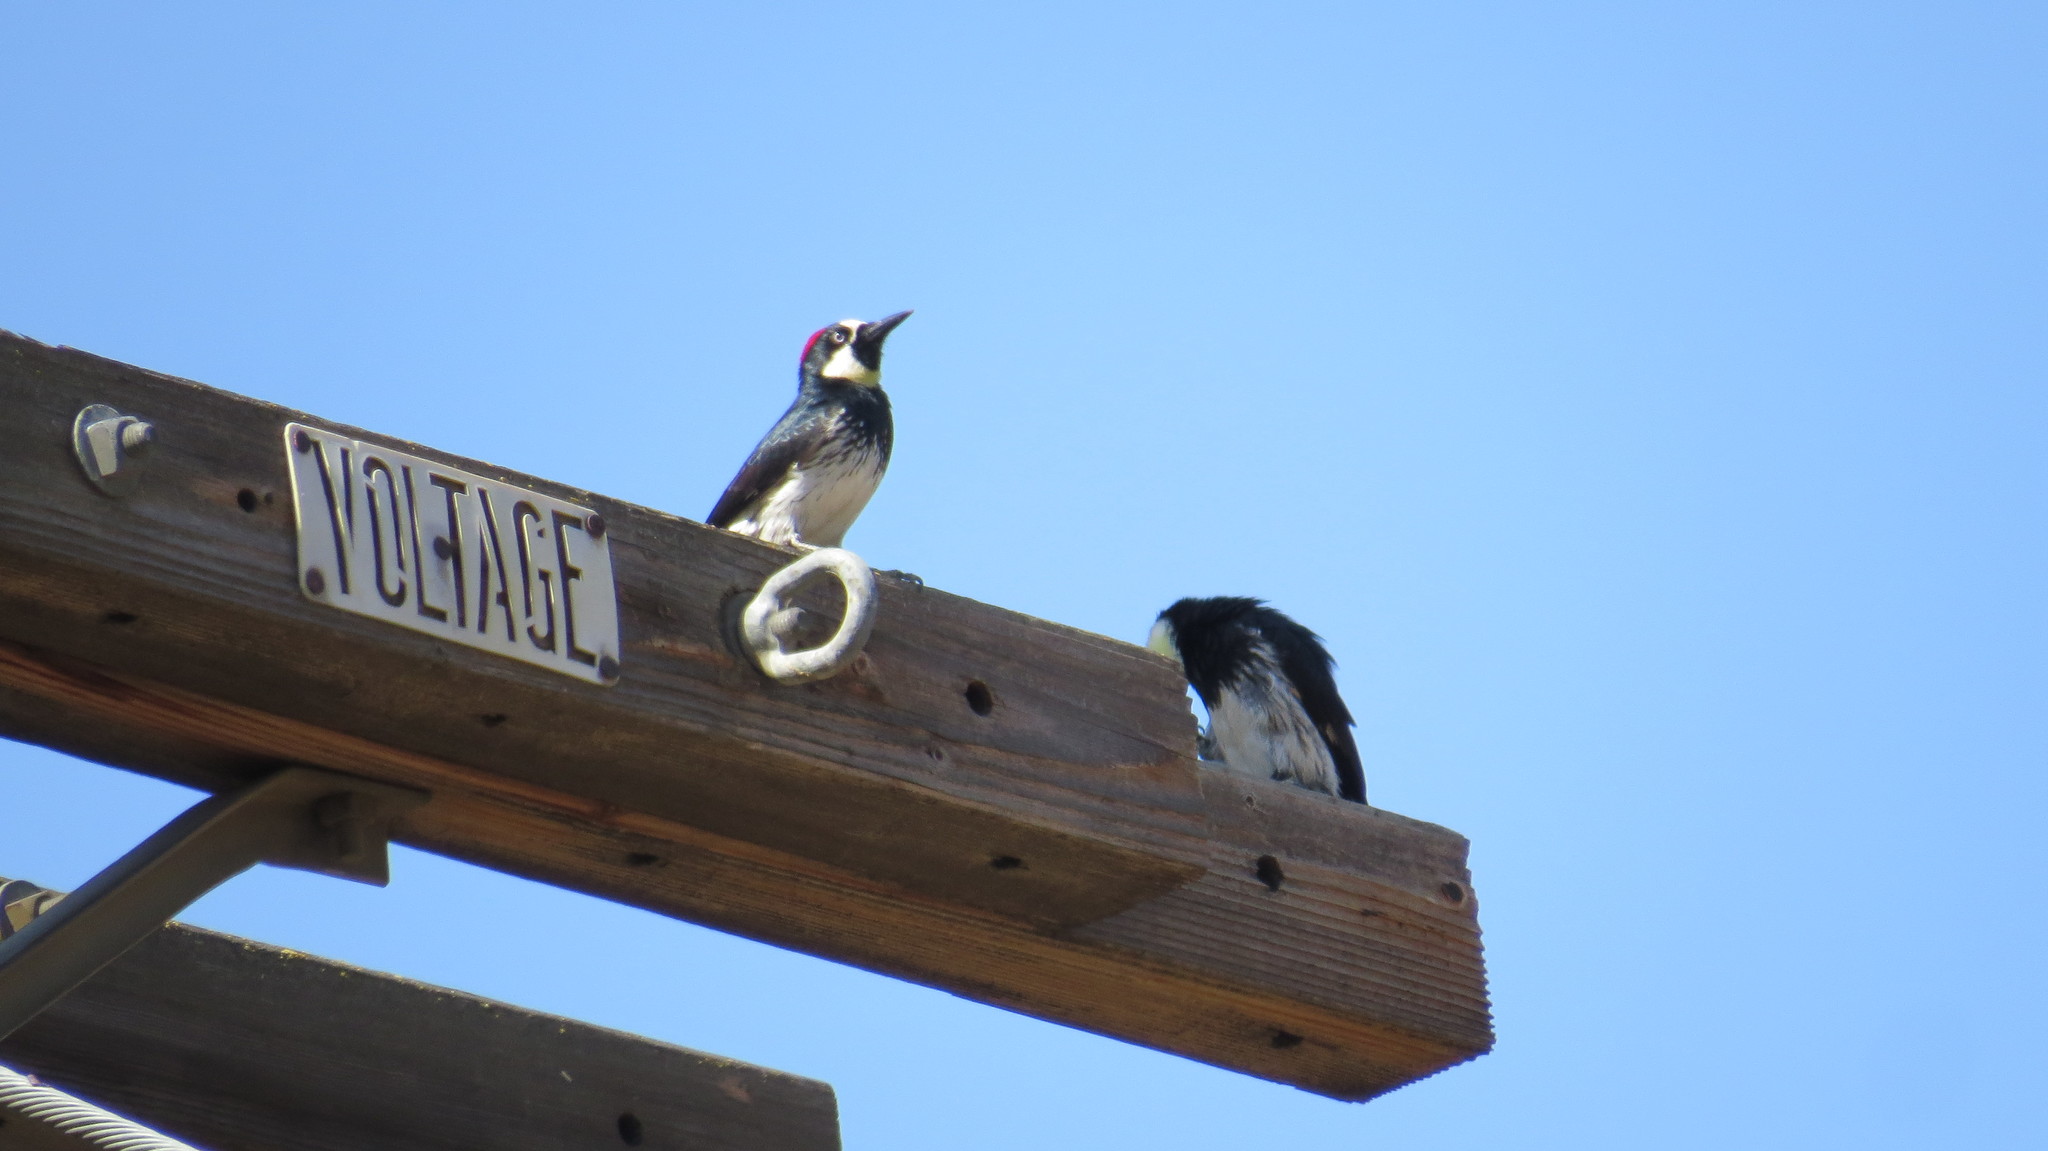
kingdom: Animalia
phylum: Chordata
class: Aves
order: Piciformes
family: Picidae
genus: Melanerpes
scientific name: Melanerpes formicivorus
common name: Acorn woodpecker
